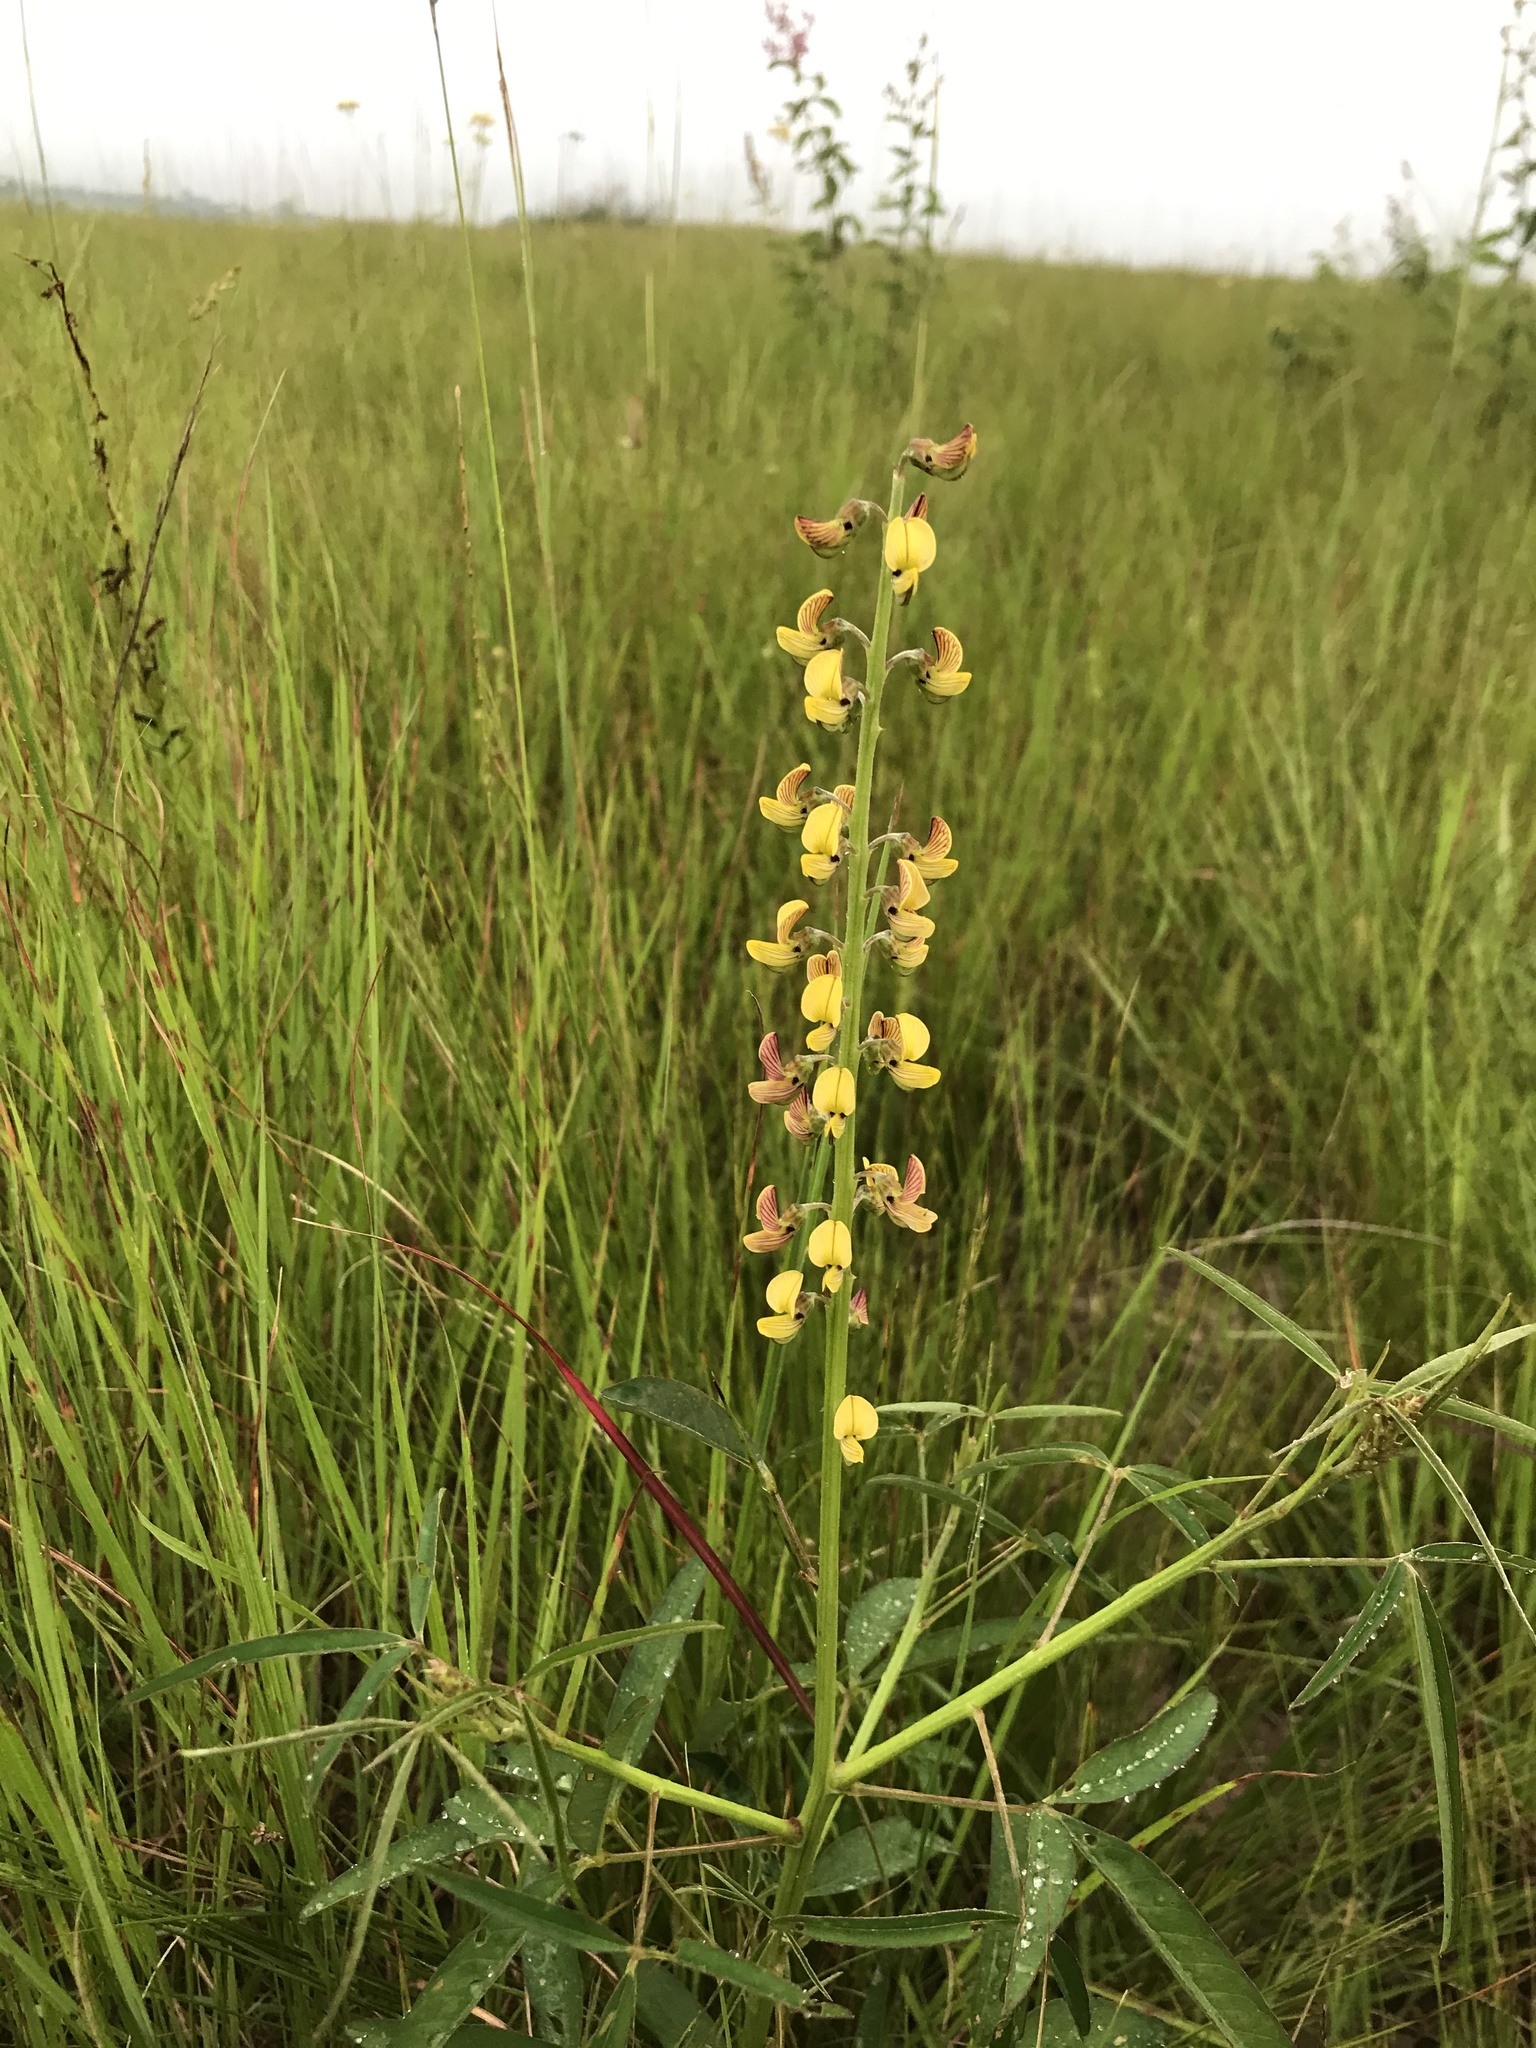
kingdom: Plantae
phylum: Tracheophyta
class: Magnoliopsida
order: Fabales
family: Fabaceae
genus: Crotalaria
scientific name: Crotalaria lanceolata
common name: Lanceleaf rattlebox
